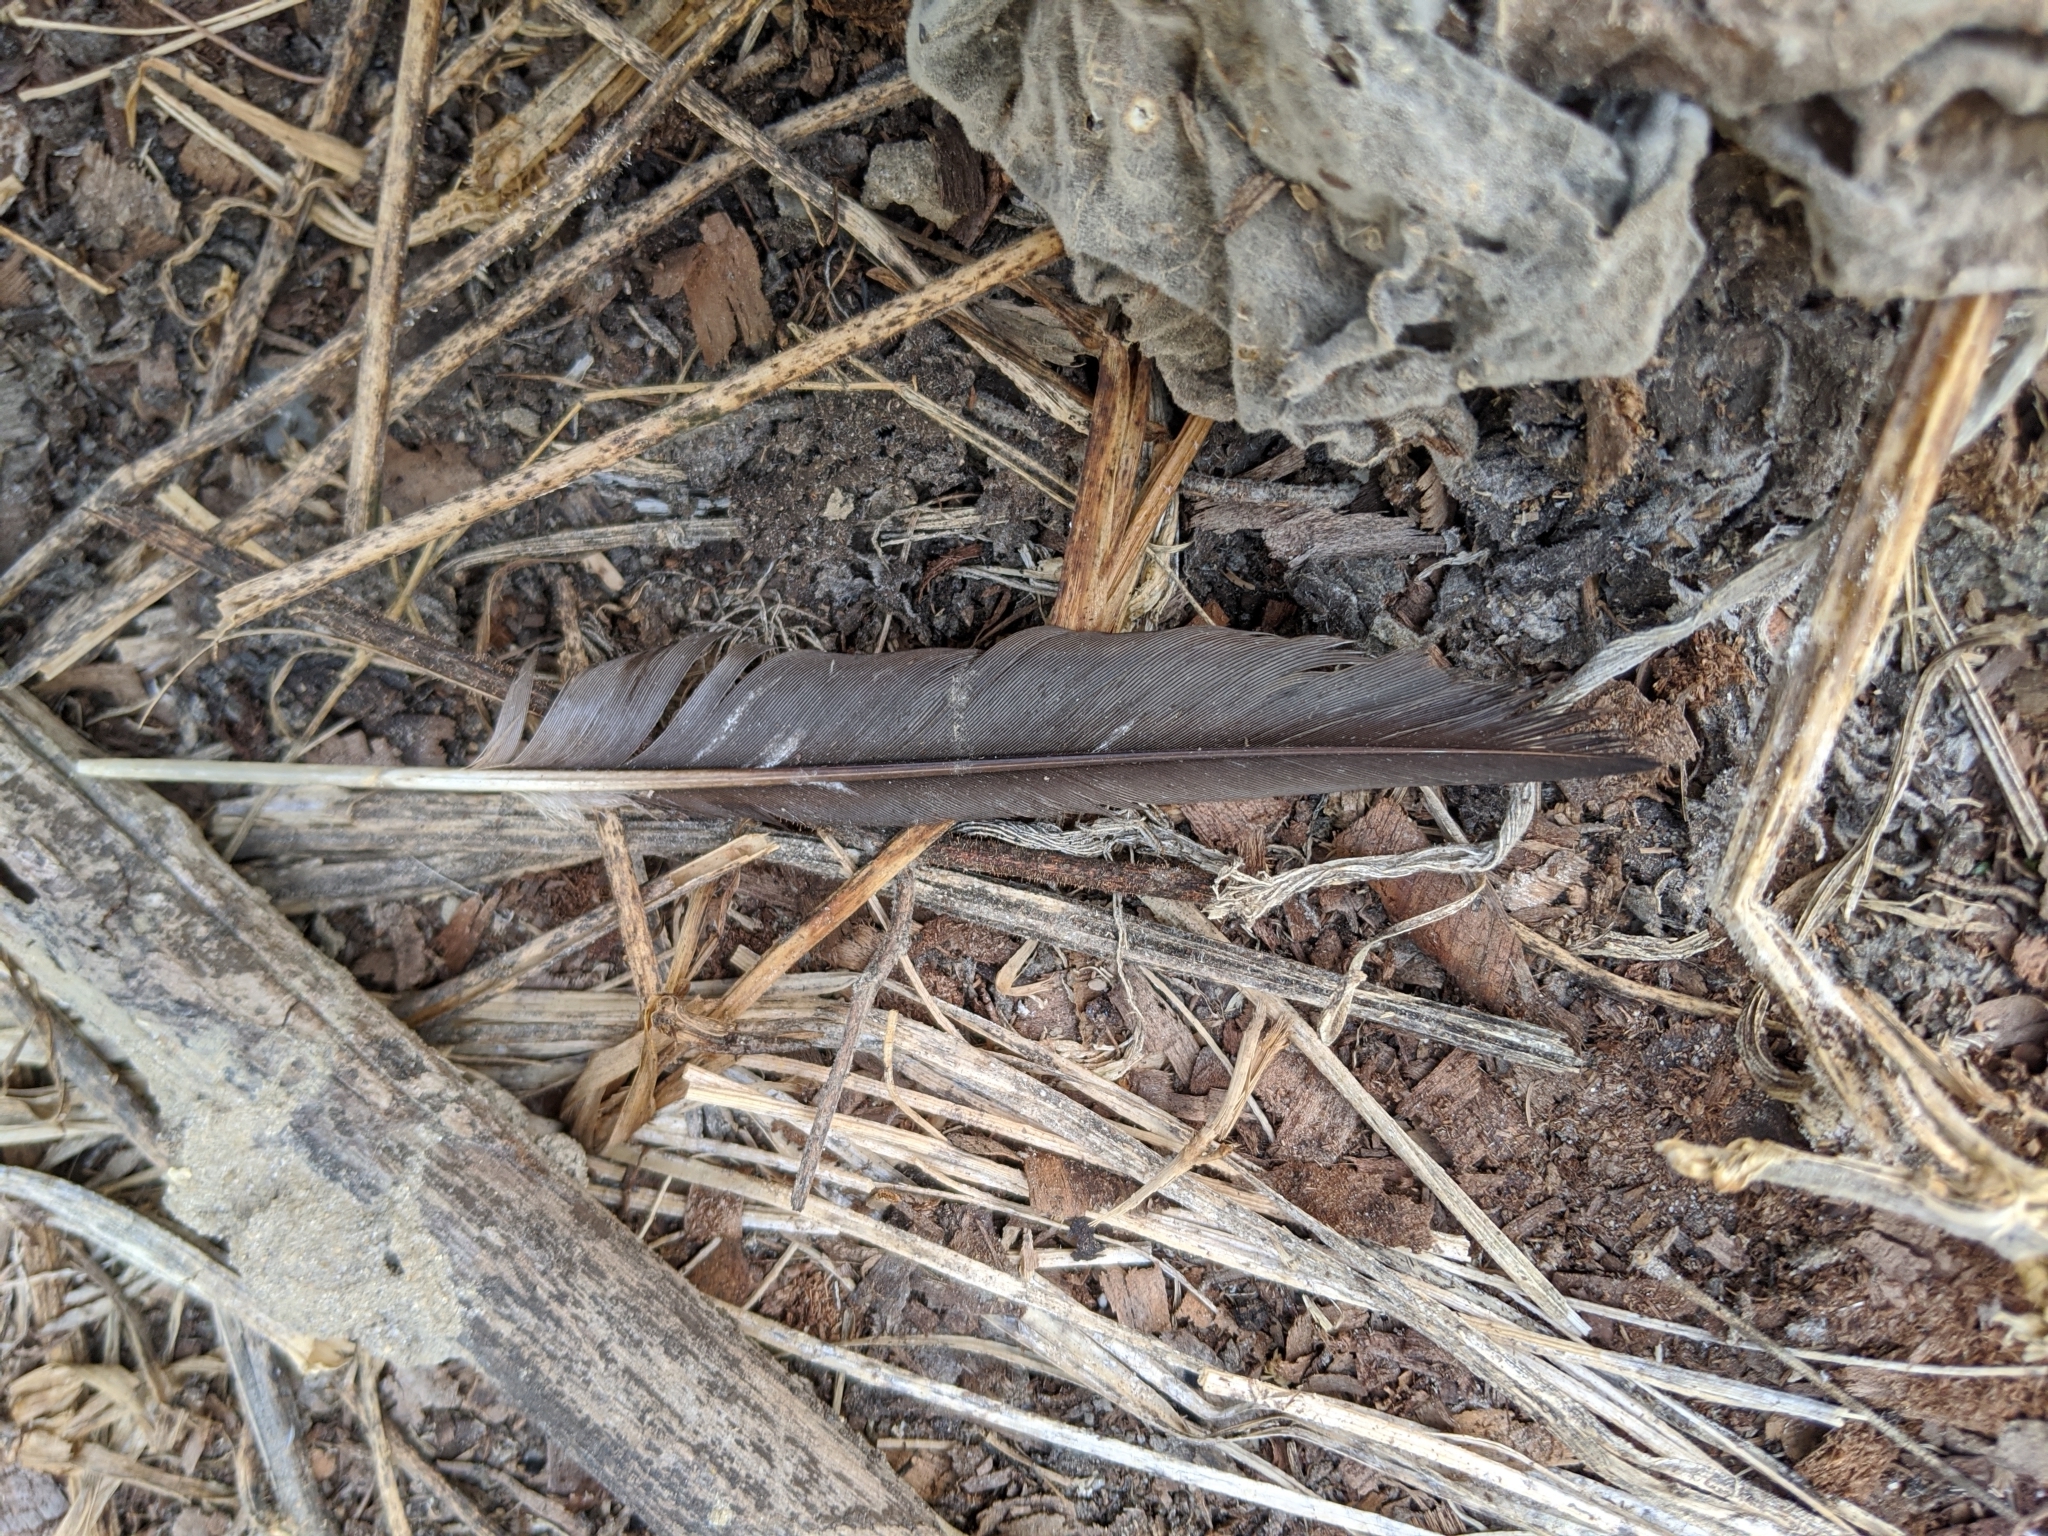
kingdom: Animalia
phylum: Chordata
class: Aves
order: Suliformes
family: Phalacrocoracidae
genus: Microcarbo
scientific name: Microcarbo africanus
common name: Long-tailed cormorant
